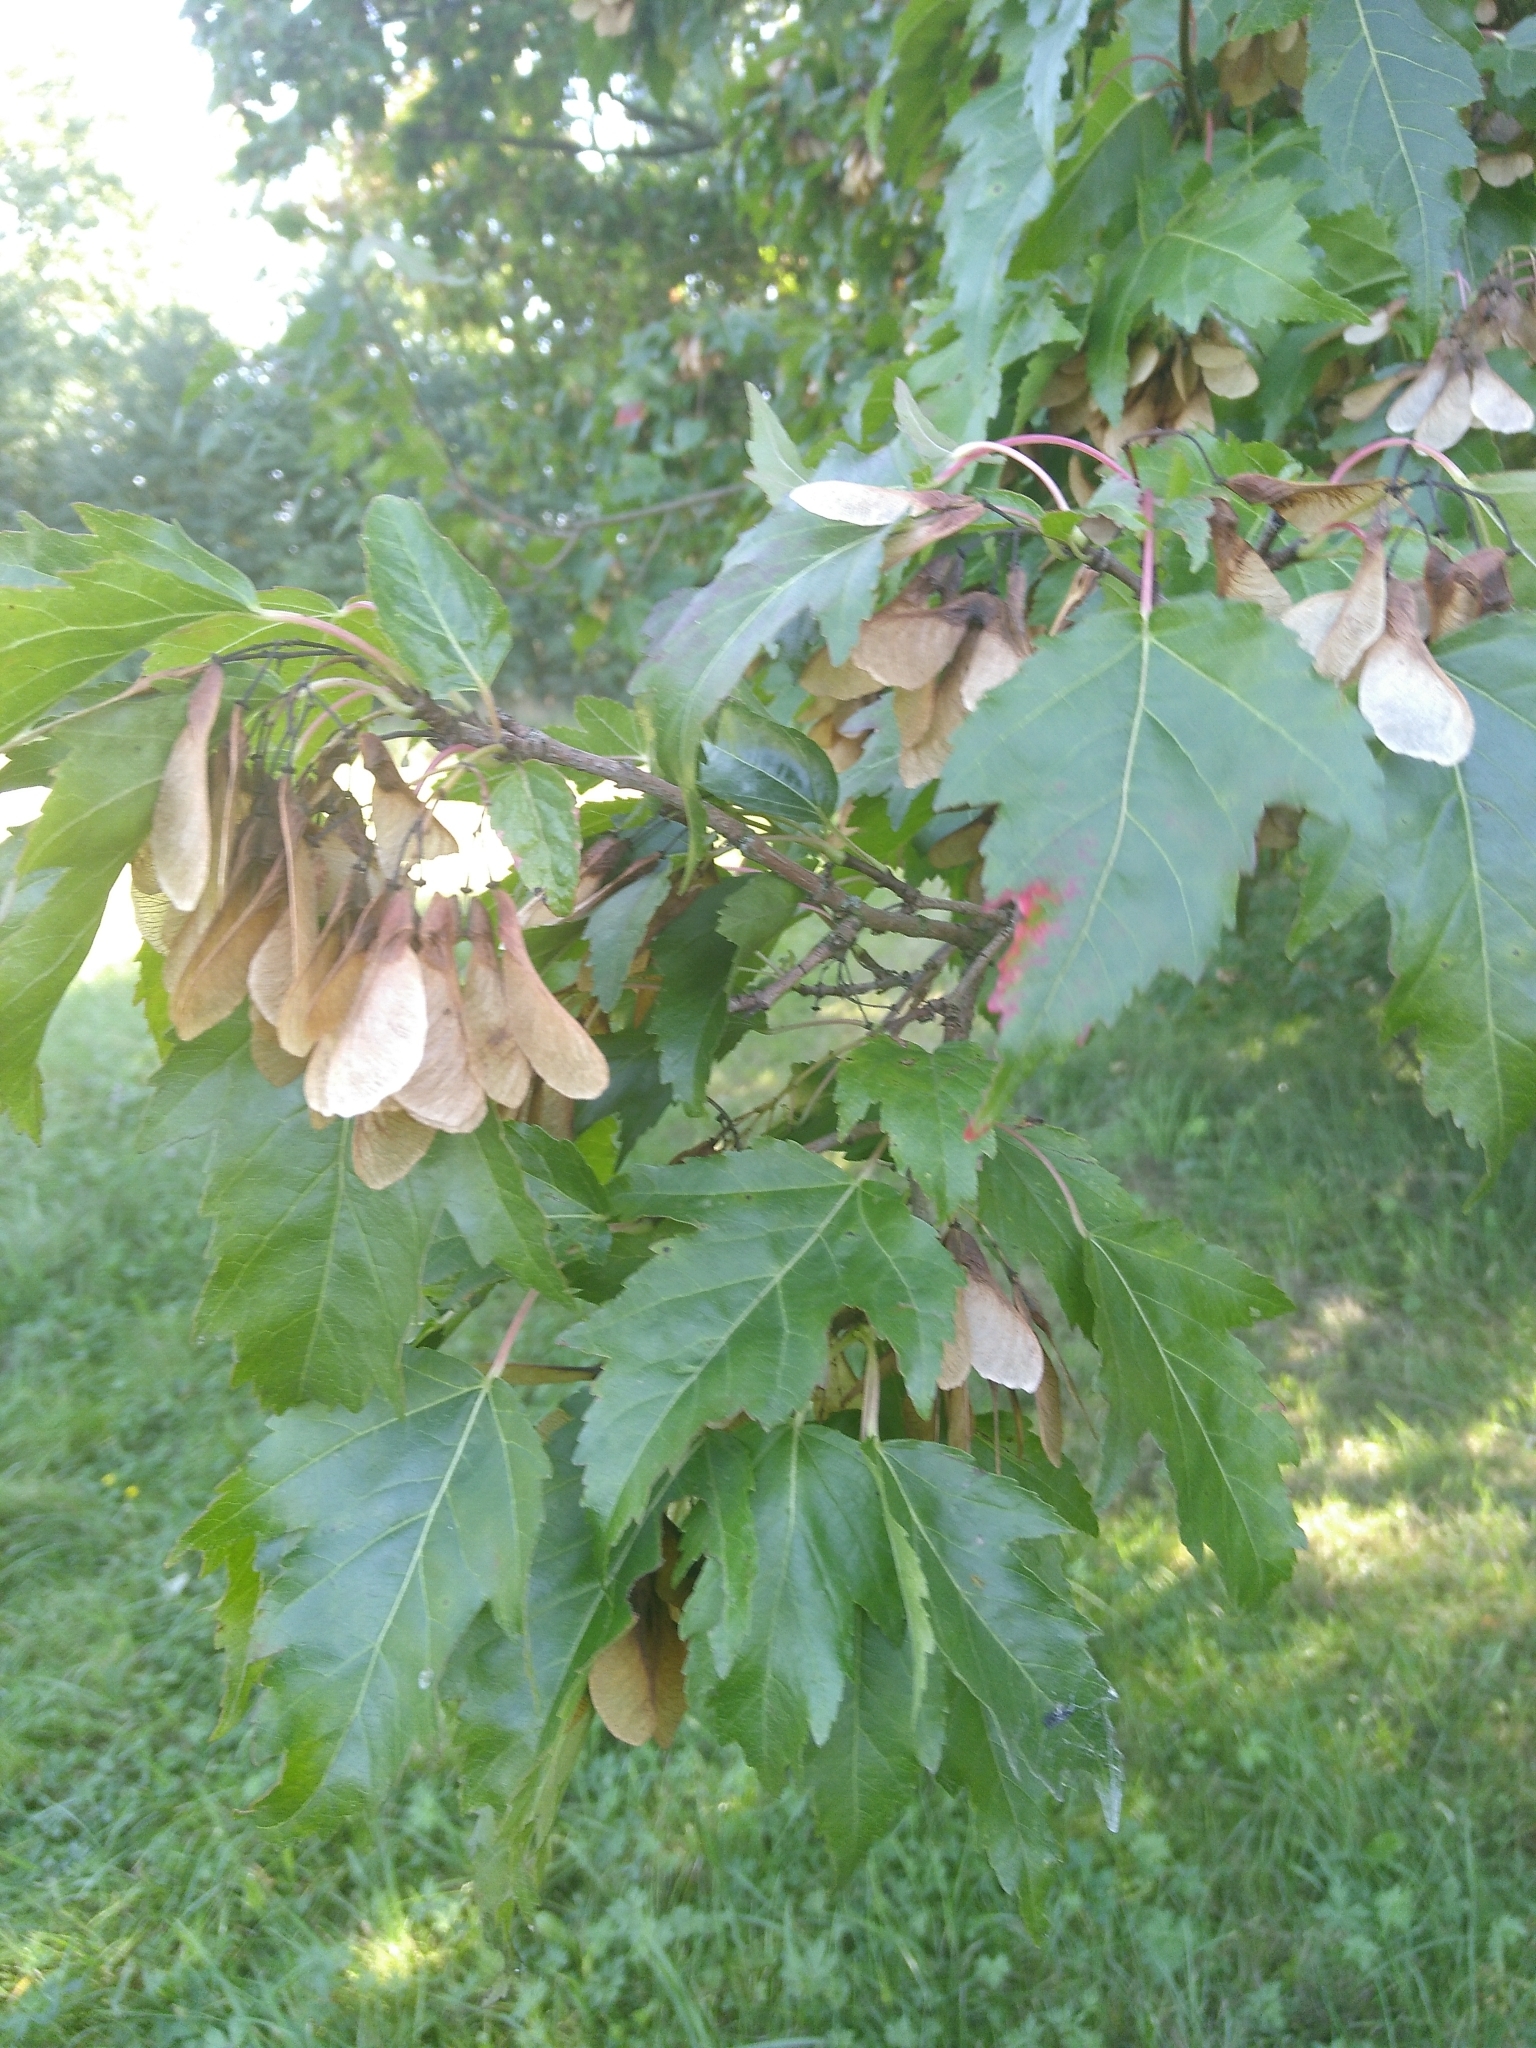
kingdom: Plantae
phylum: Tracheophyta
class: Magnoliopsida
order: Sapindales
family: Sapindaceae
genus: Acer
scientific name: Acer tataricum
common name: Tartar maple
